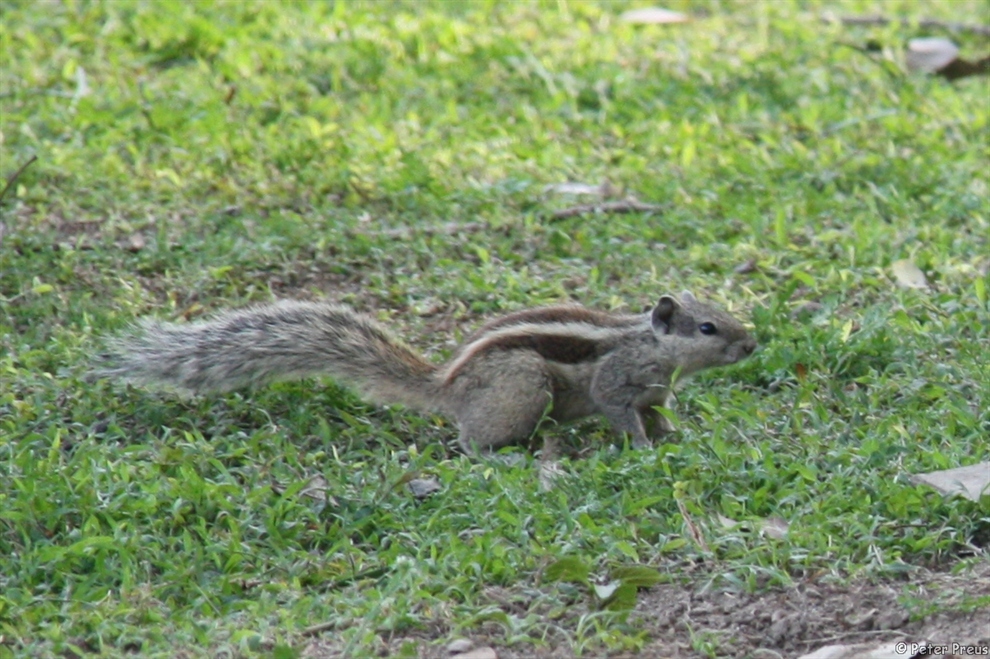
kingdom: Animalia
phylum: Chordata
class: Mammalia
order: Rodentia
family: Sciuridae
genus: Funambulus
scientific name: Funambulus pennantii
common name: Northern palm squirrel
